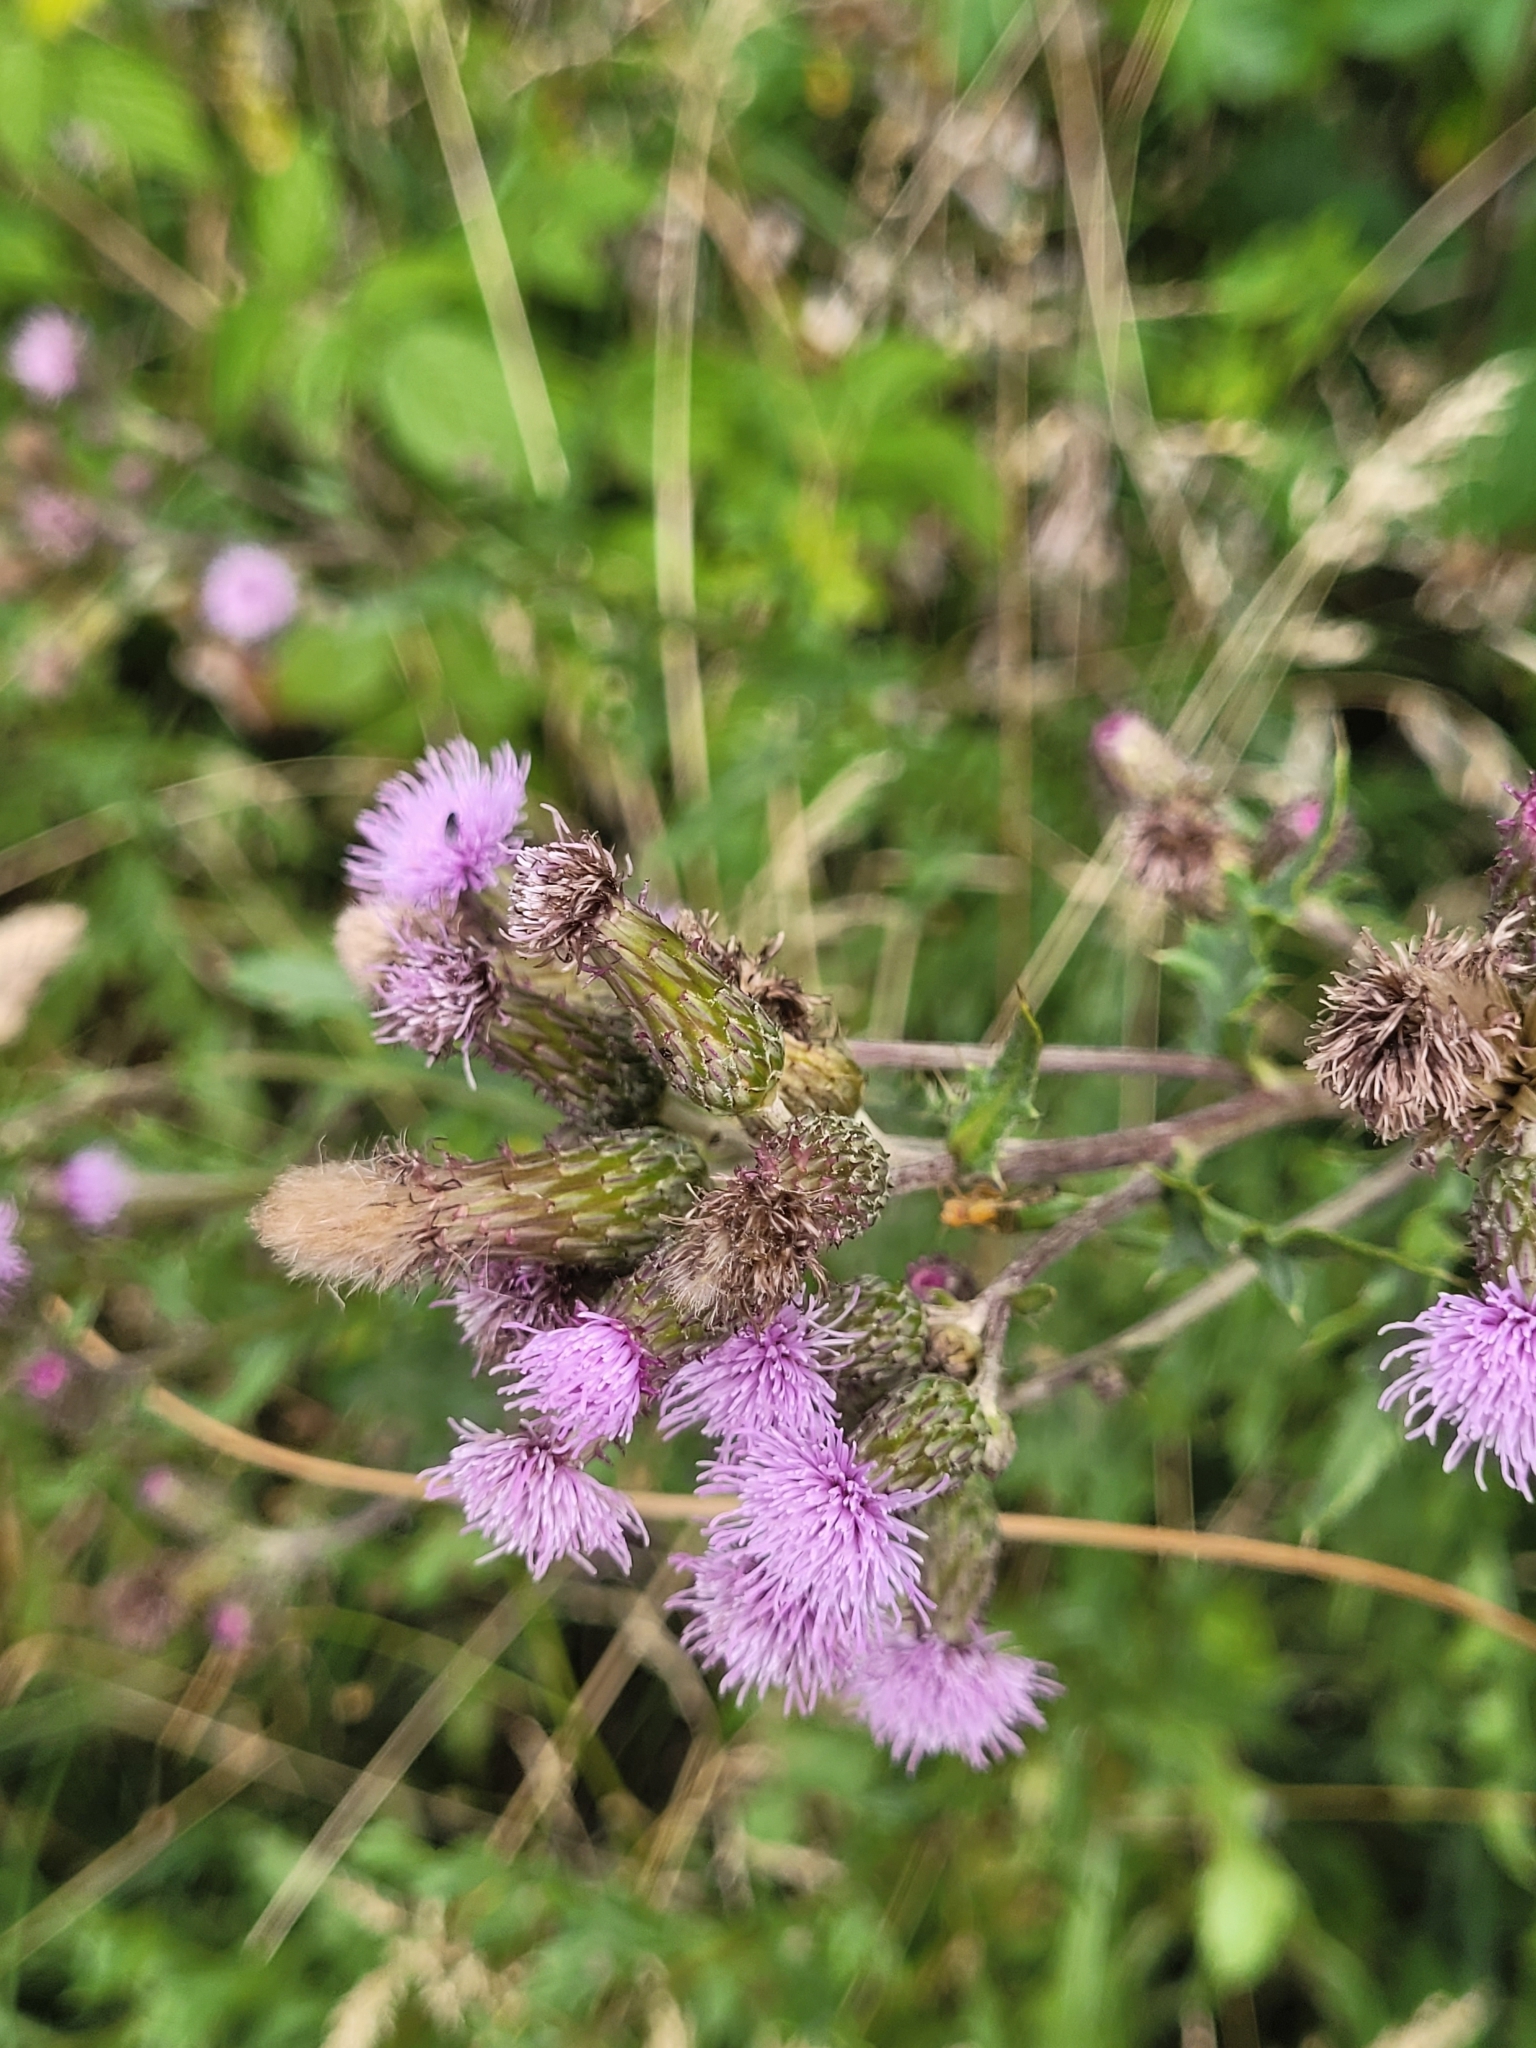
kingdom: Plantae
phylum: Tracheophyta
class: Magnoliopsida
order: Asterales
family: Asteraceae
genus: Cirsium
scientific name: Cirsium arvense
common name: Creeping thistle
